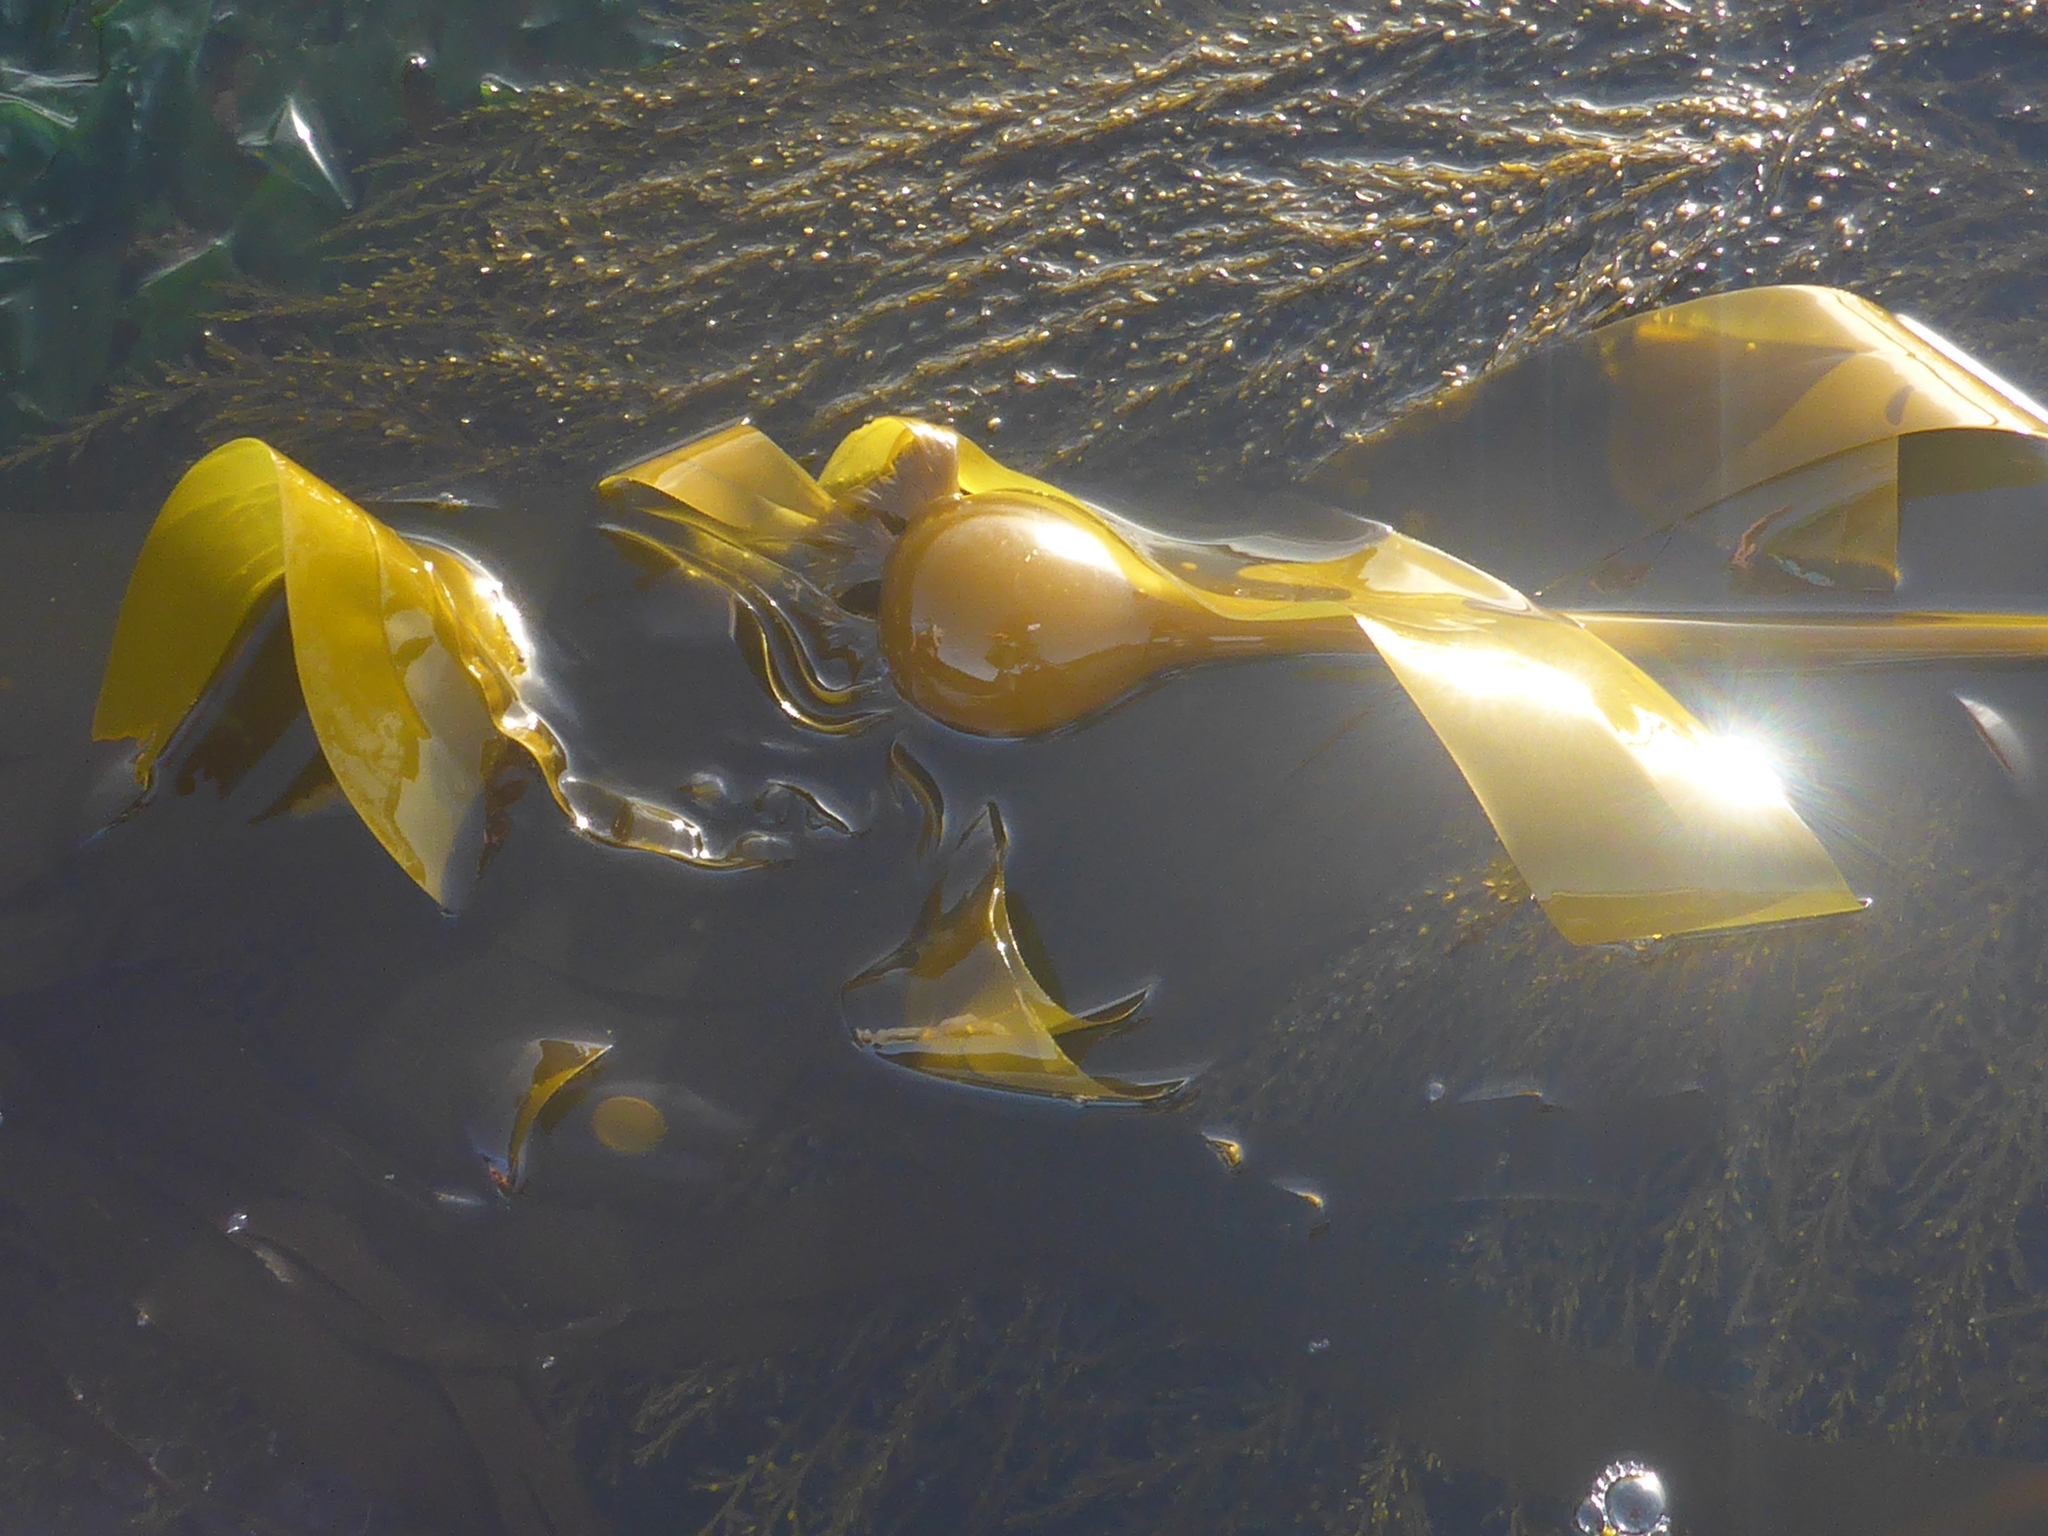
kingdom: Chromista
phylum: Ochrophyta
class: Phaeophyceae
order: Laminariales
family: Laminariaceae
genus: Nereocystis
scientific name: Nereocystis luetkeana
